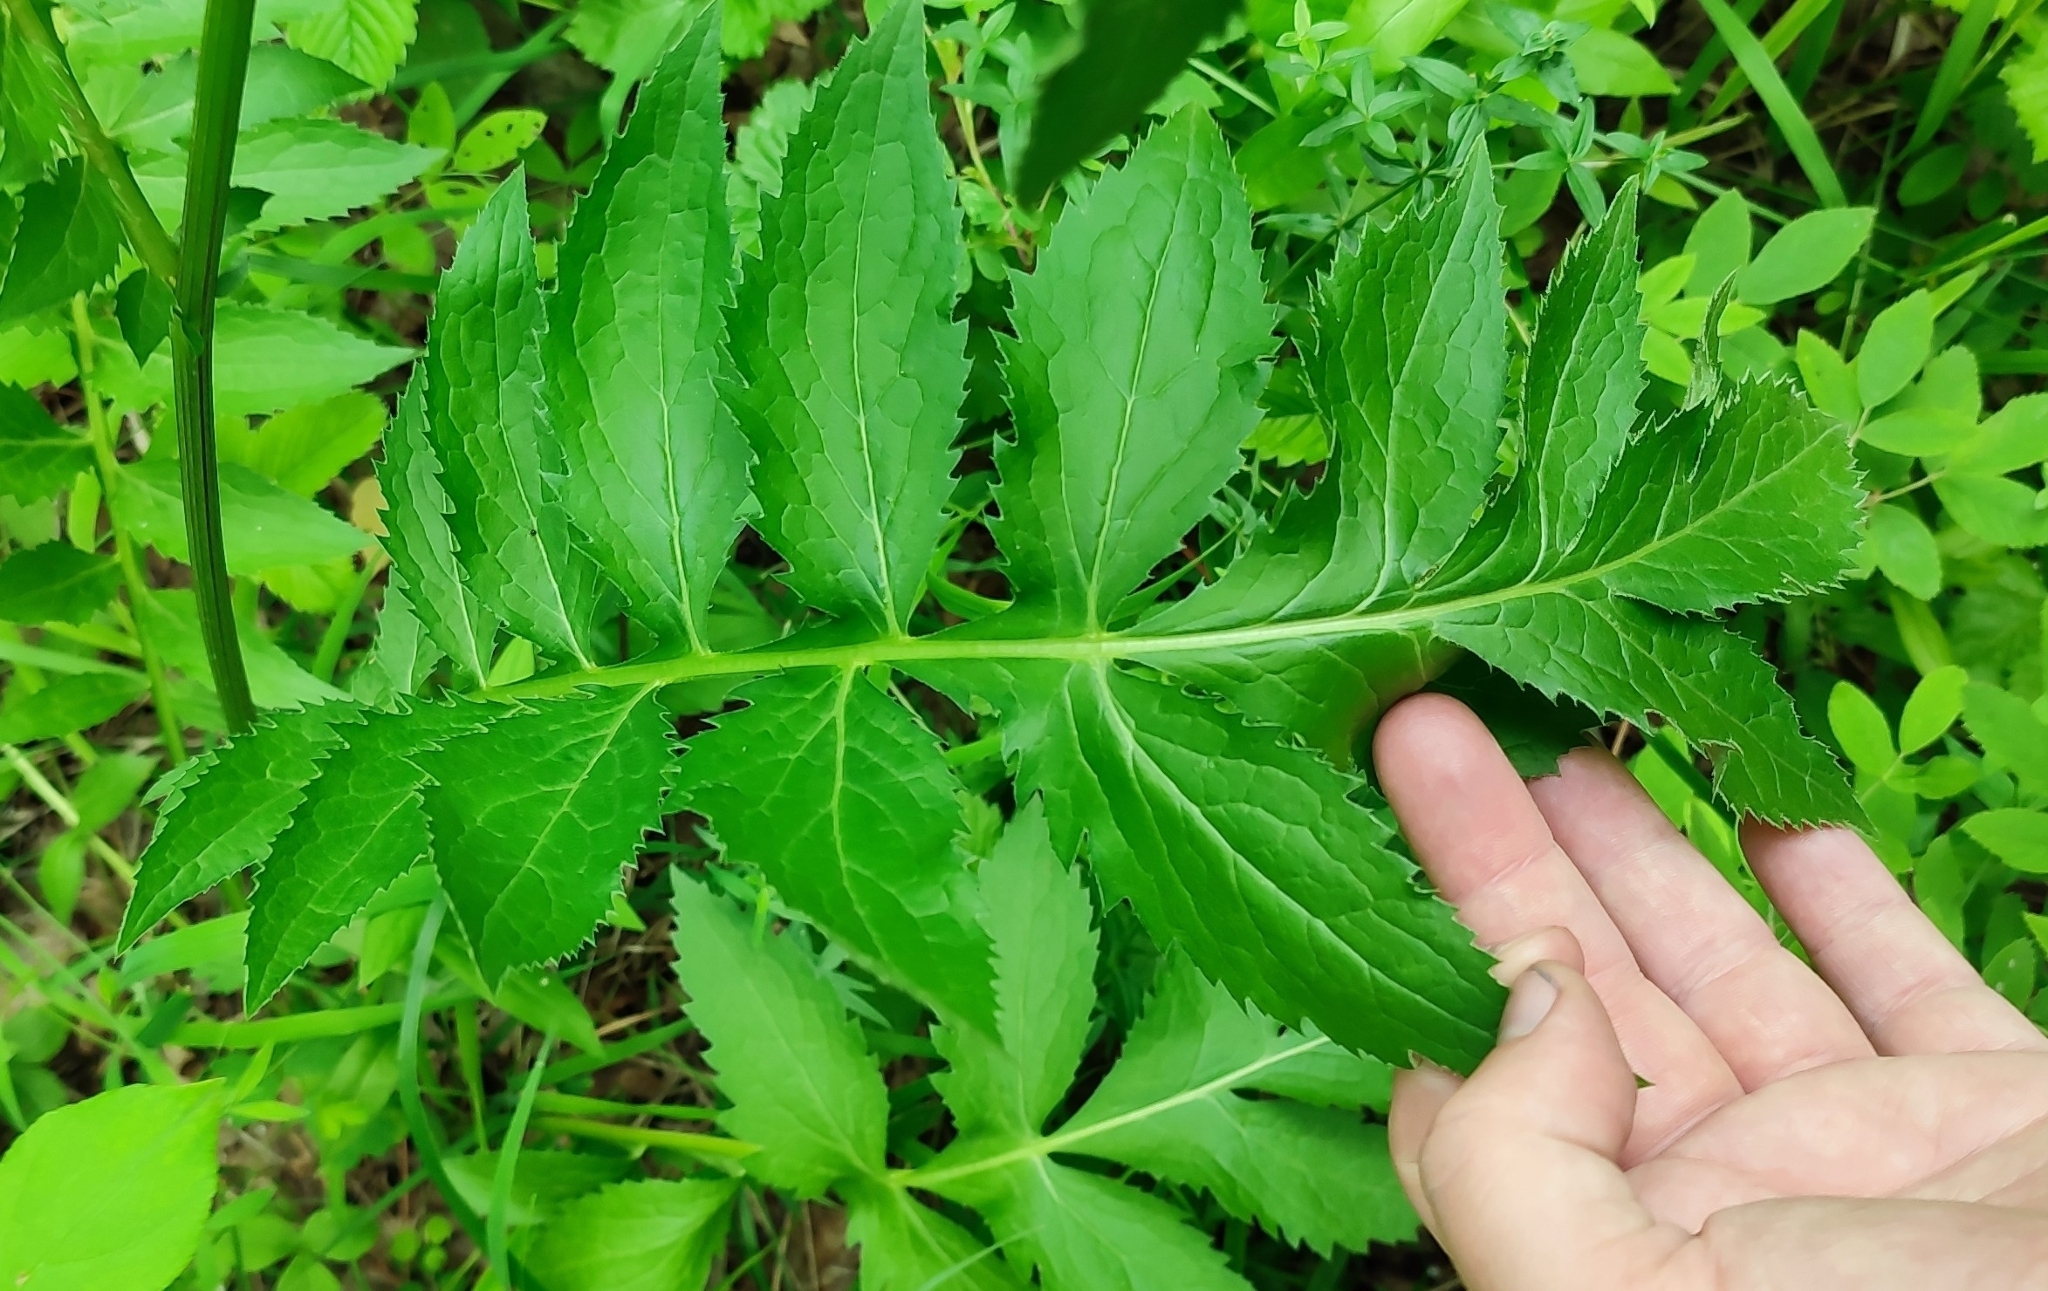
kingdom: Plantae
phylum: Tracheophyta
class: Magnoliopsida
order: Asterales
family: Asteraceae
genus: Serratula
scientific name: Serratula coronata
